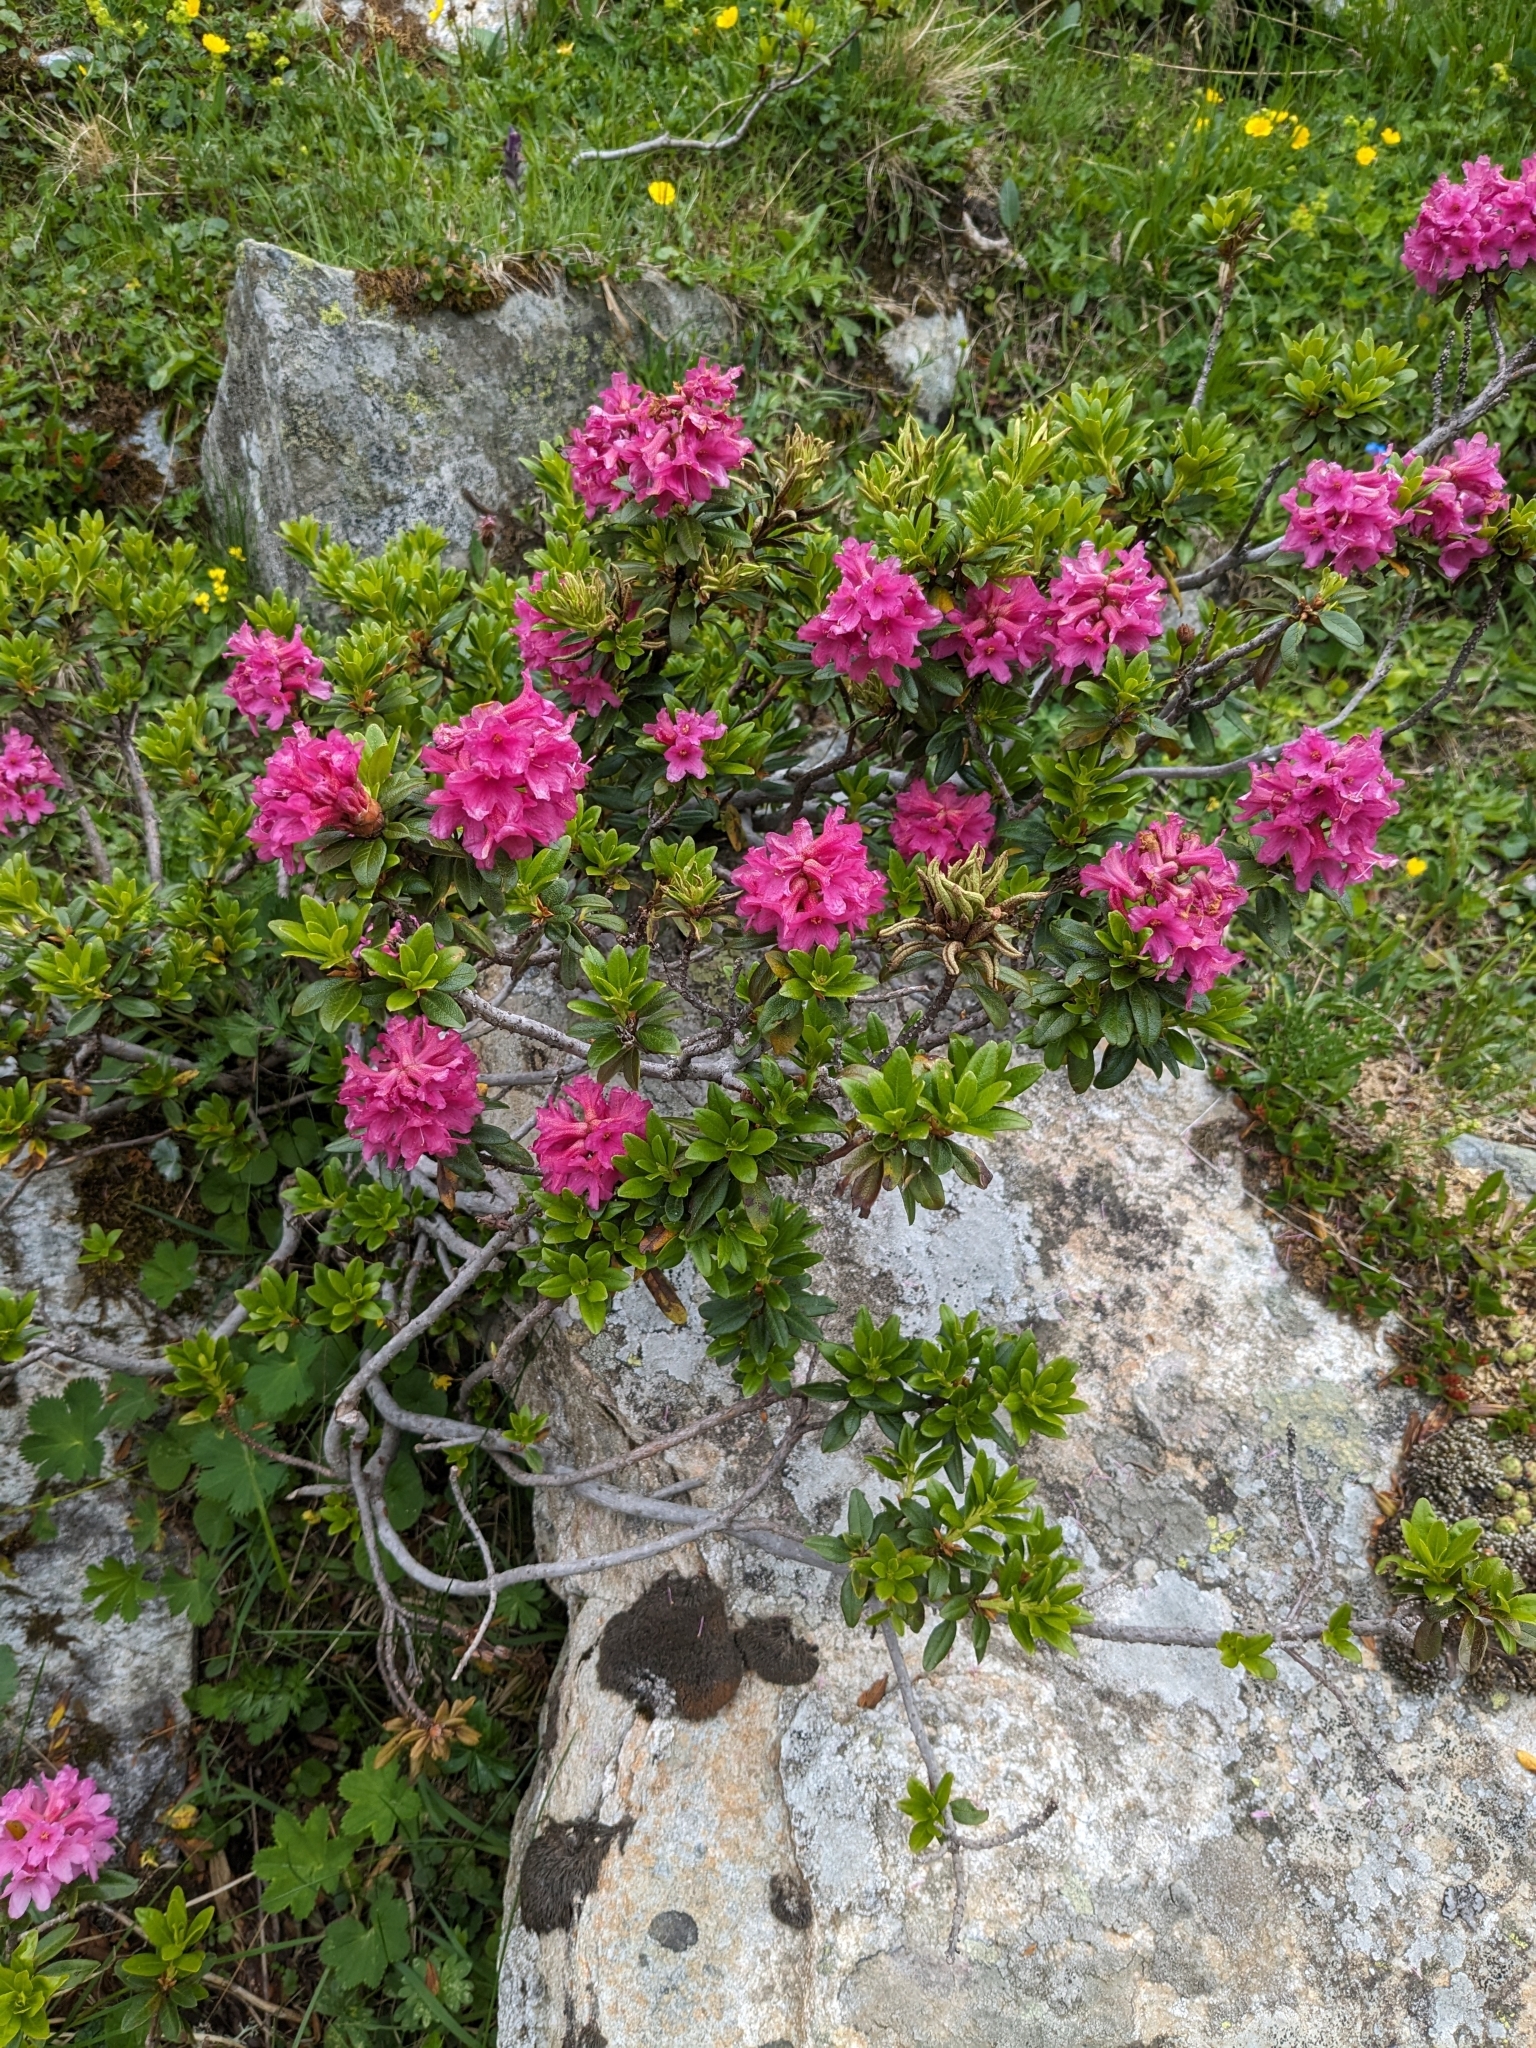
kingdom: Plantae
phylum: Tracheophyta
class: Magnoliopsida
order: Ericales
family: Ericaceae
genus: Rhododendron
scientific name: Rhododendron ferrugineum
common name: Alpenrose
